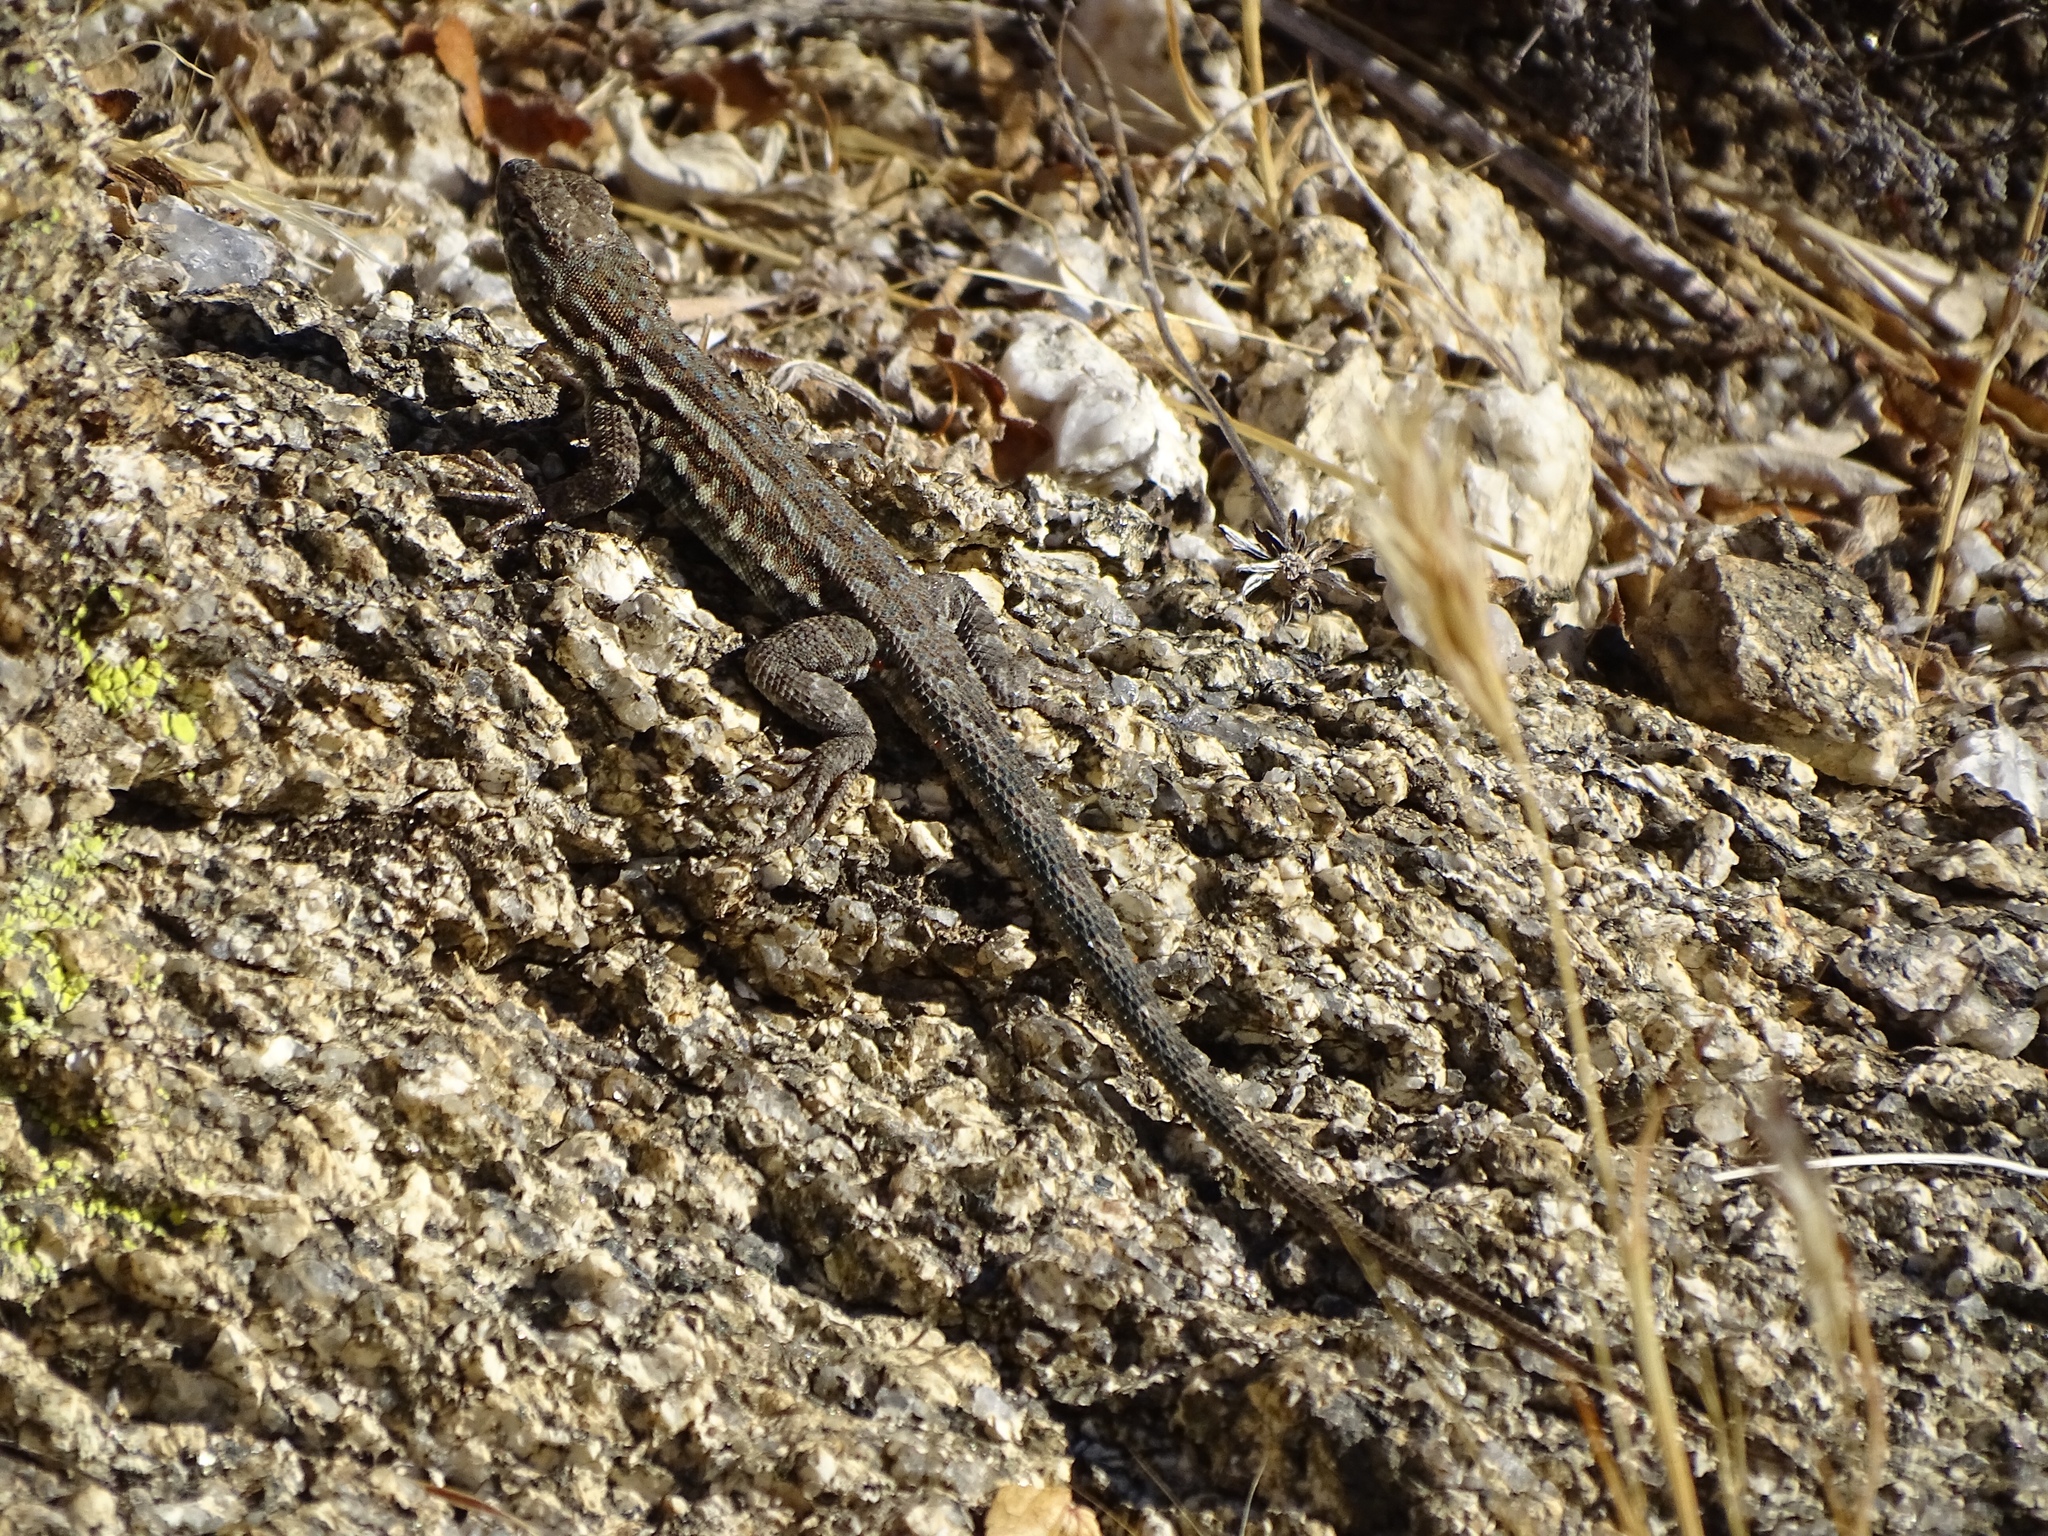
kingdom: Animalia
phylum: Chordata
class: Squamata
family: Phrynosomatidae
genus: Uta
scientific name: Uta stansburiana
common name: Side-blotched lizard
